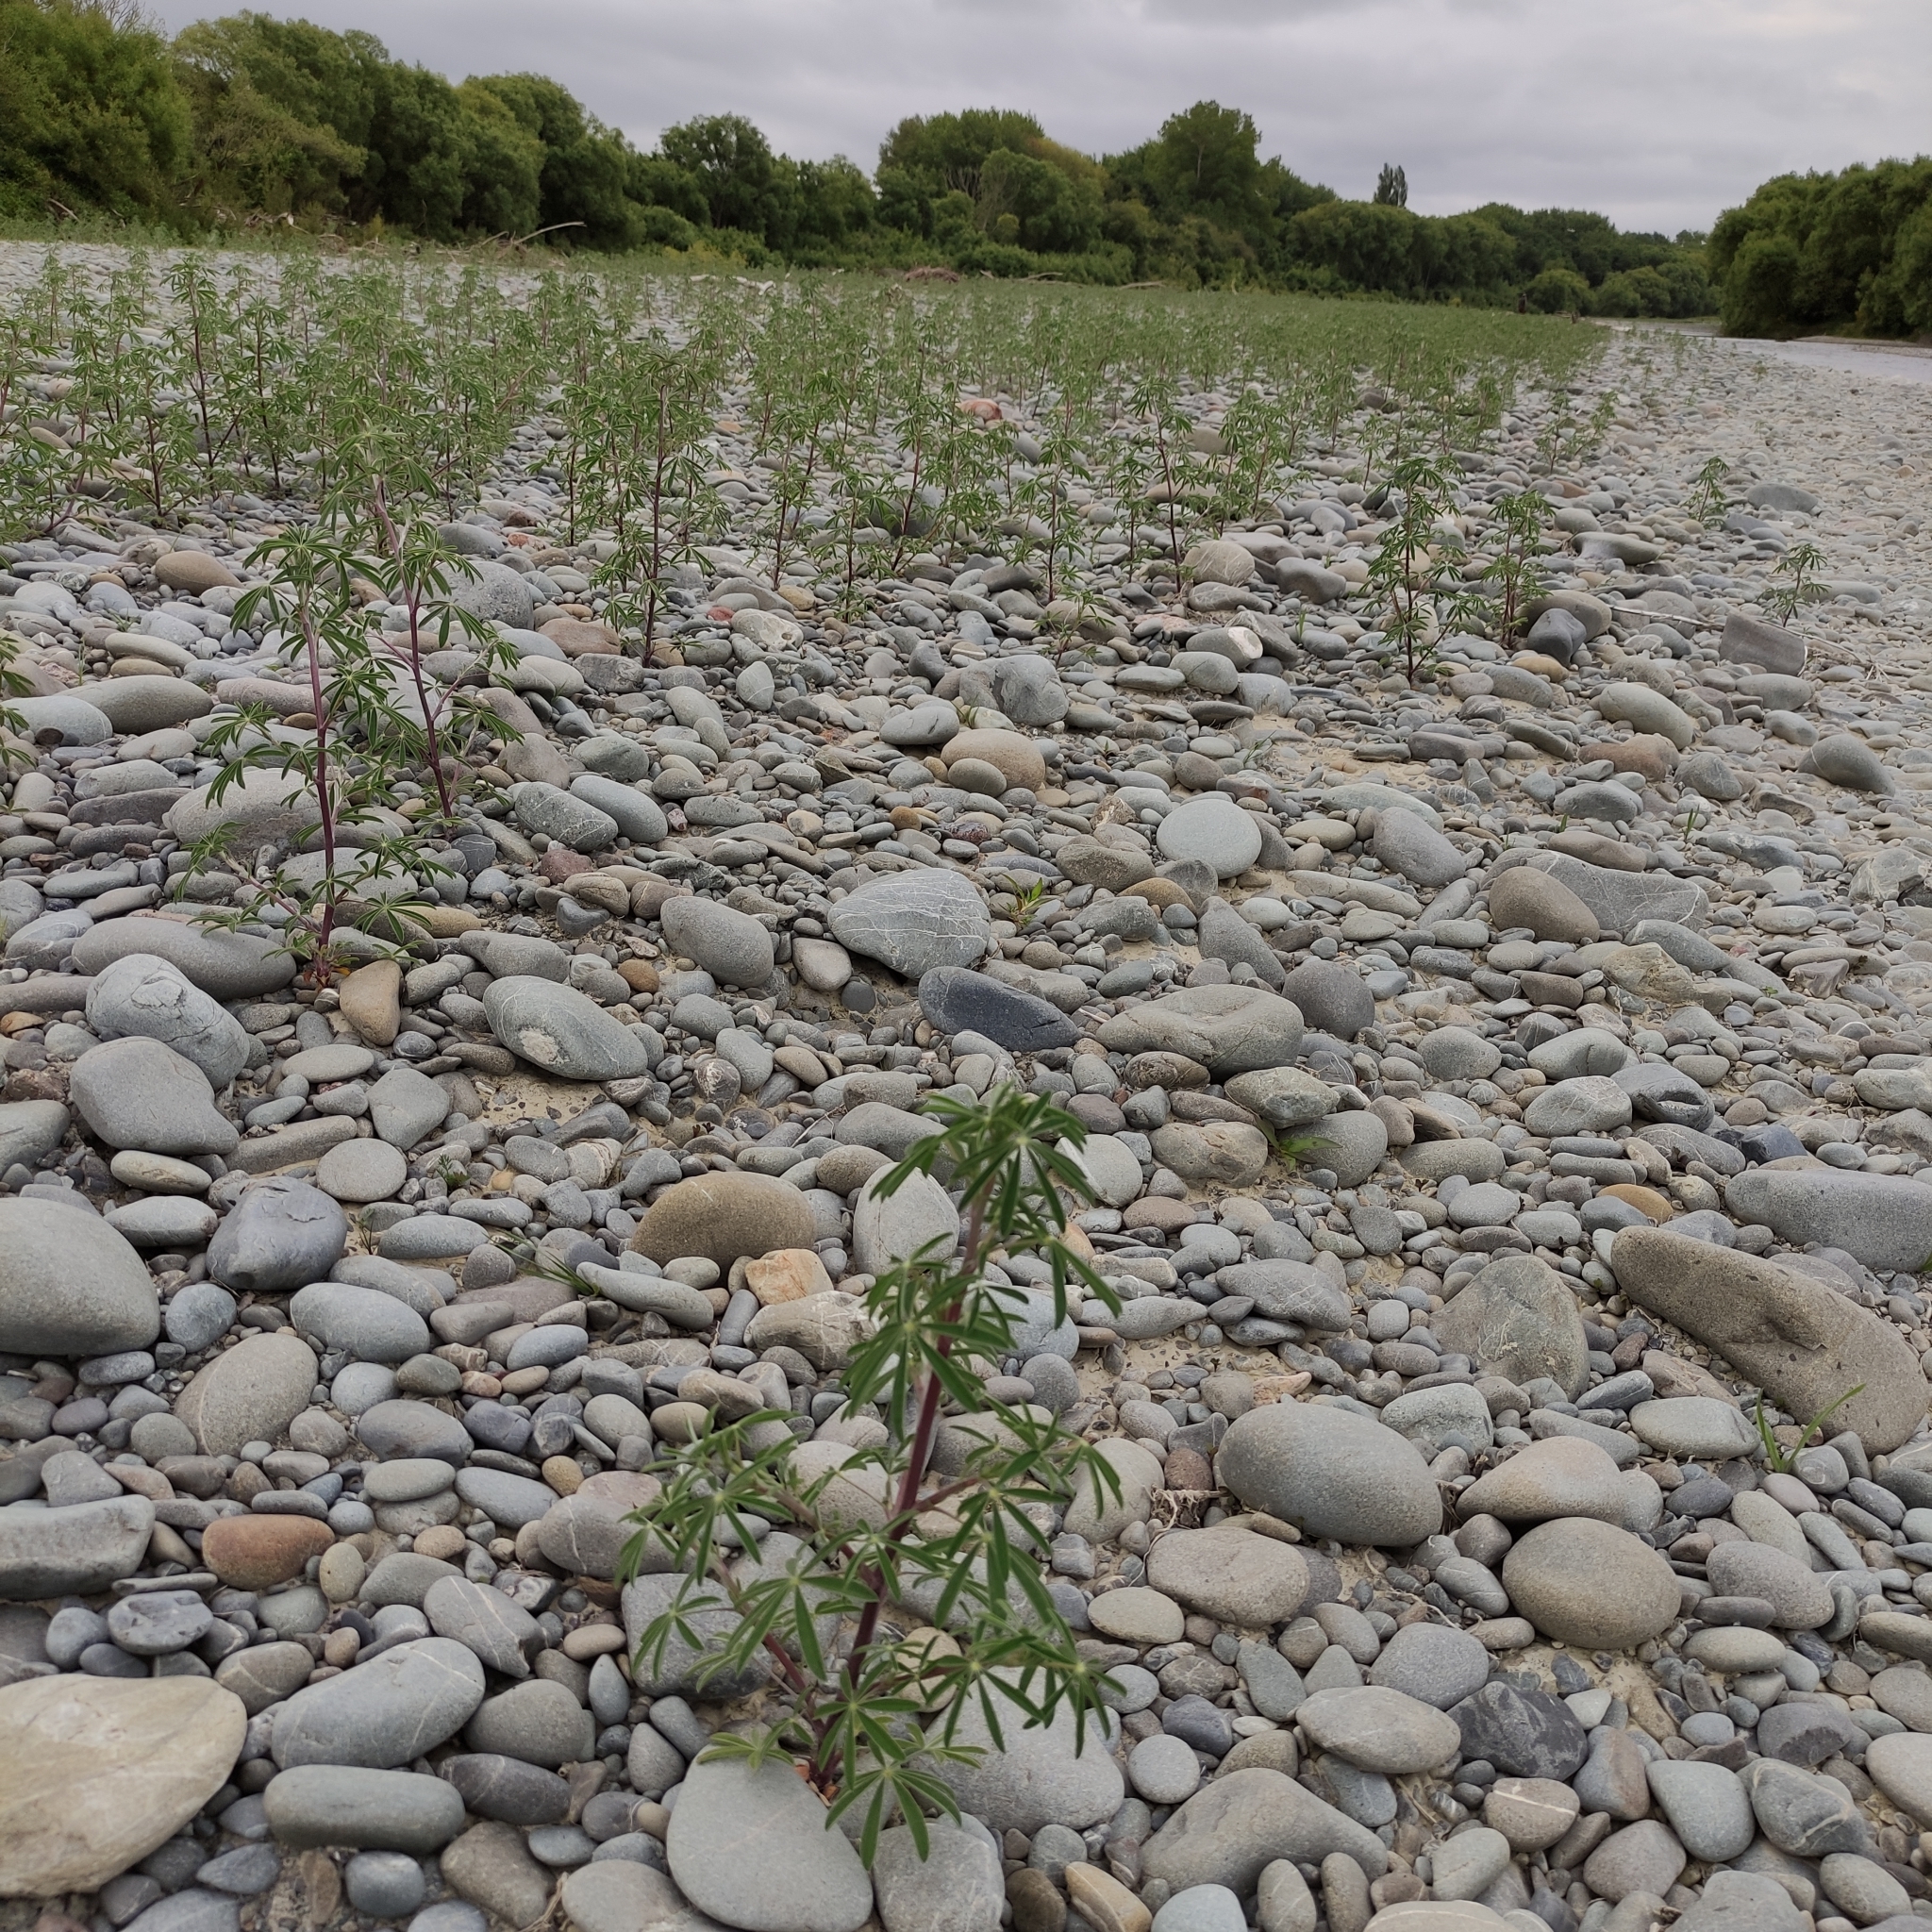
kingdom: Plantae
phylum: Tracheophyta
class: Magnoliopsida
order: Fabales
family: Fabaceae
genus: Lupinus
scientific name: Lupinus arboreus
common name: Yellow bush lupine
